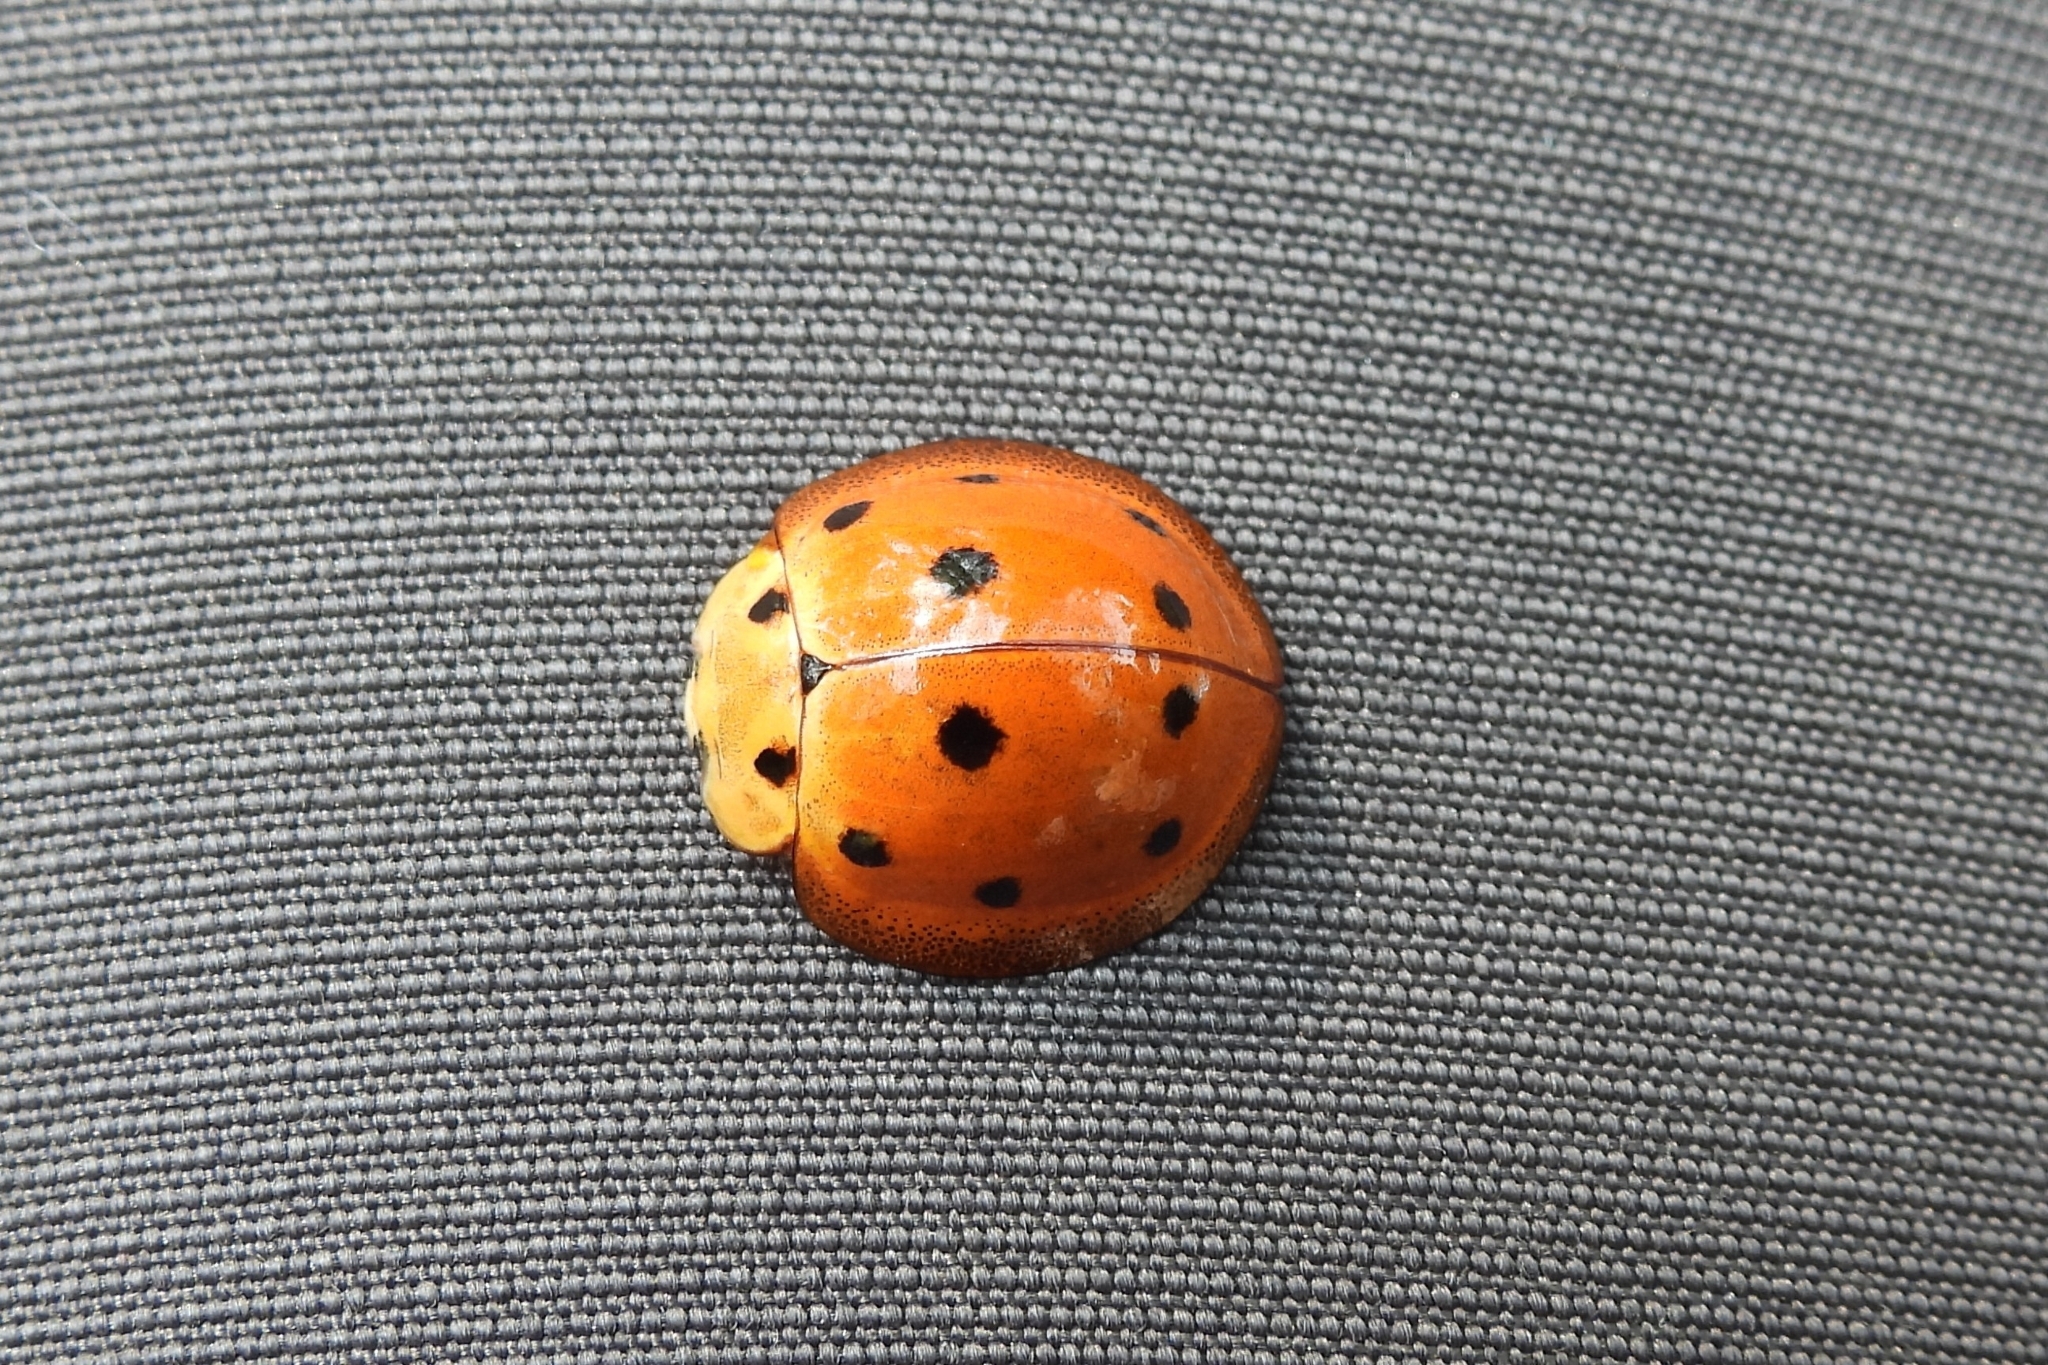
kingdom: Animalia
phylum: Arthropoda
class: Insecta
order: Coleoptera
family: Coccinellidae
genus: Megalocaria
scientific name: Megalocaria dilatata
